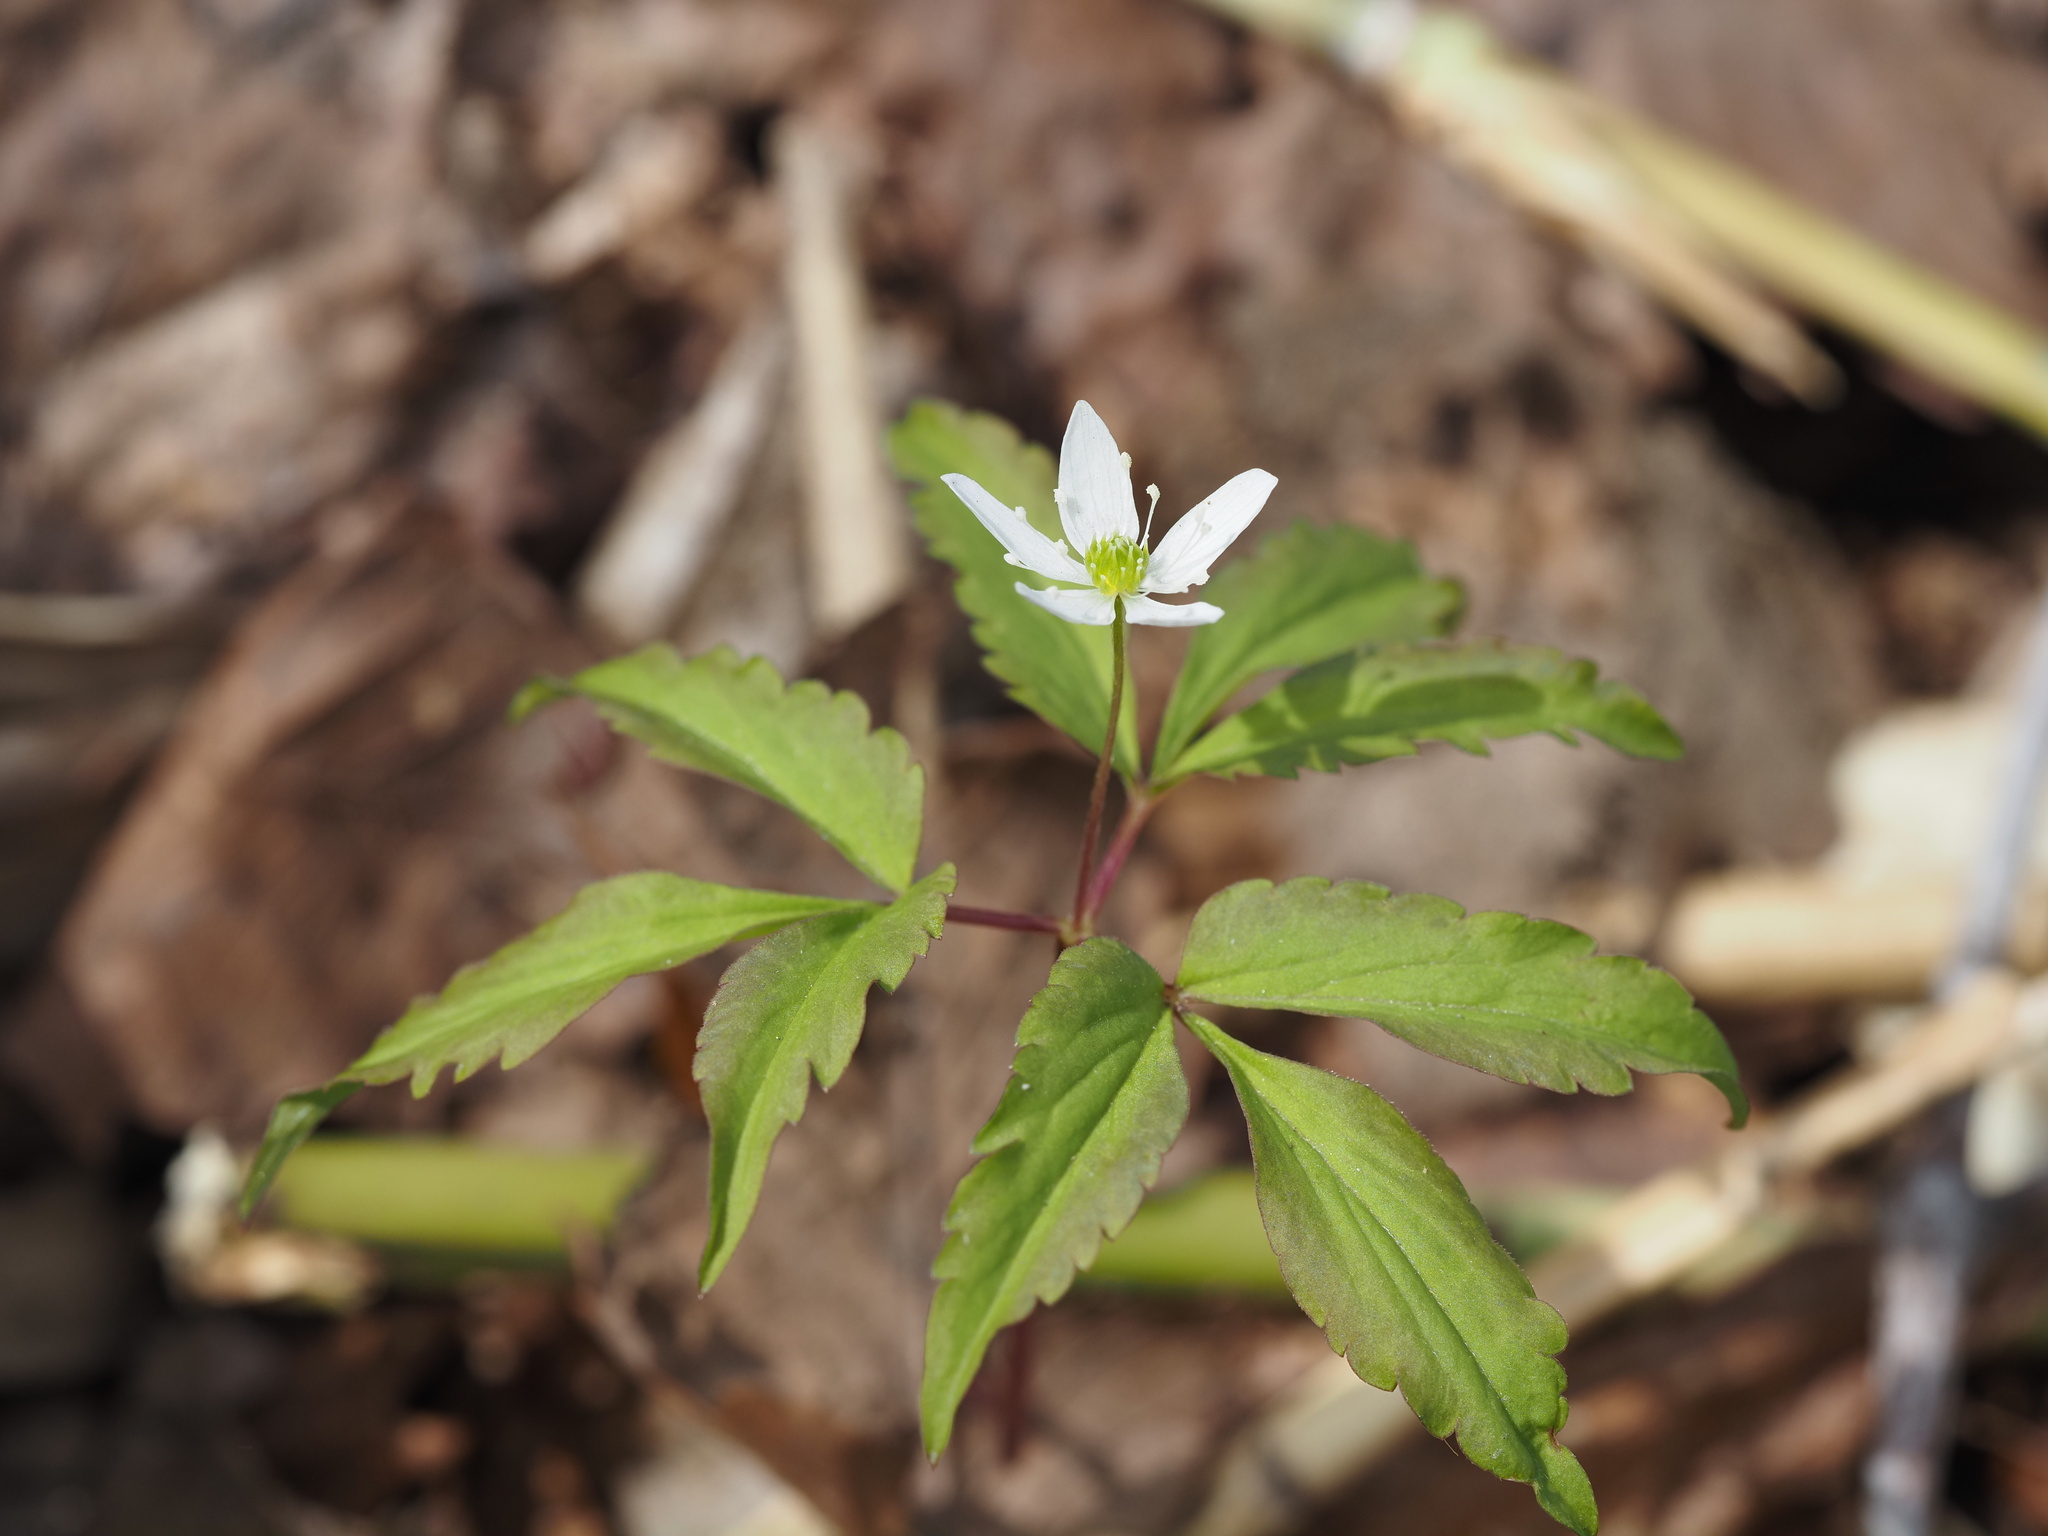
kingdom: Plantae
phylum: Tracheophyta
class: Magnoliopsida
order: Ranunculales
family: Ranunculaceae
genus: Anemone
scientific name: Anemone debilis
